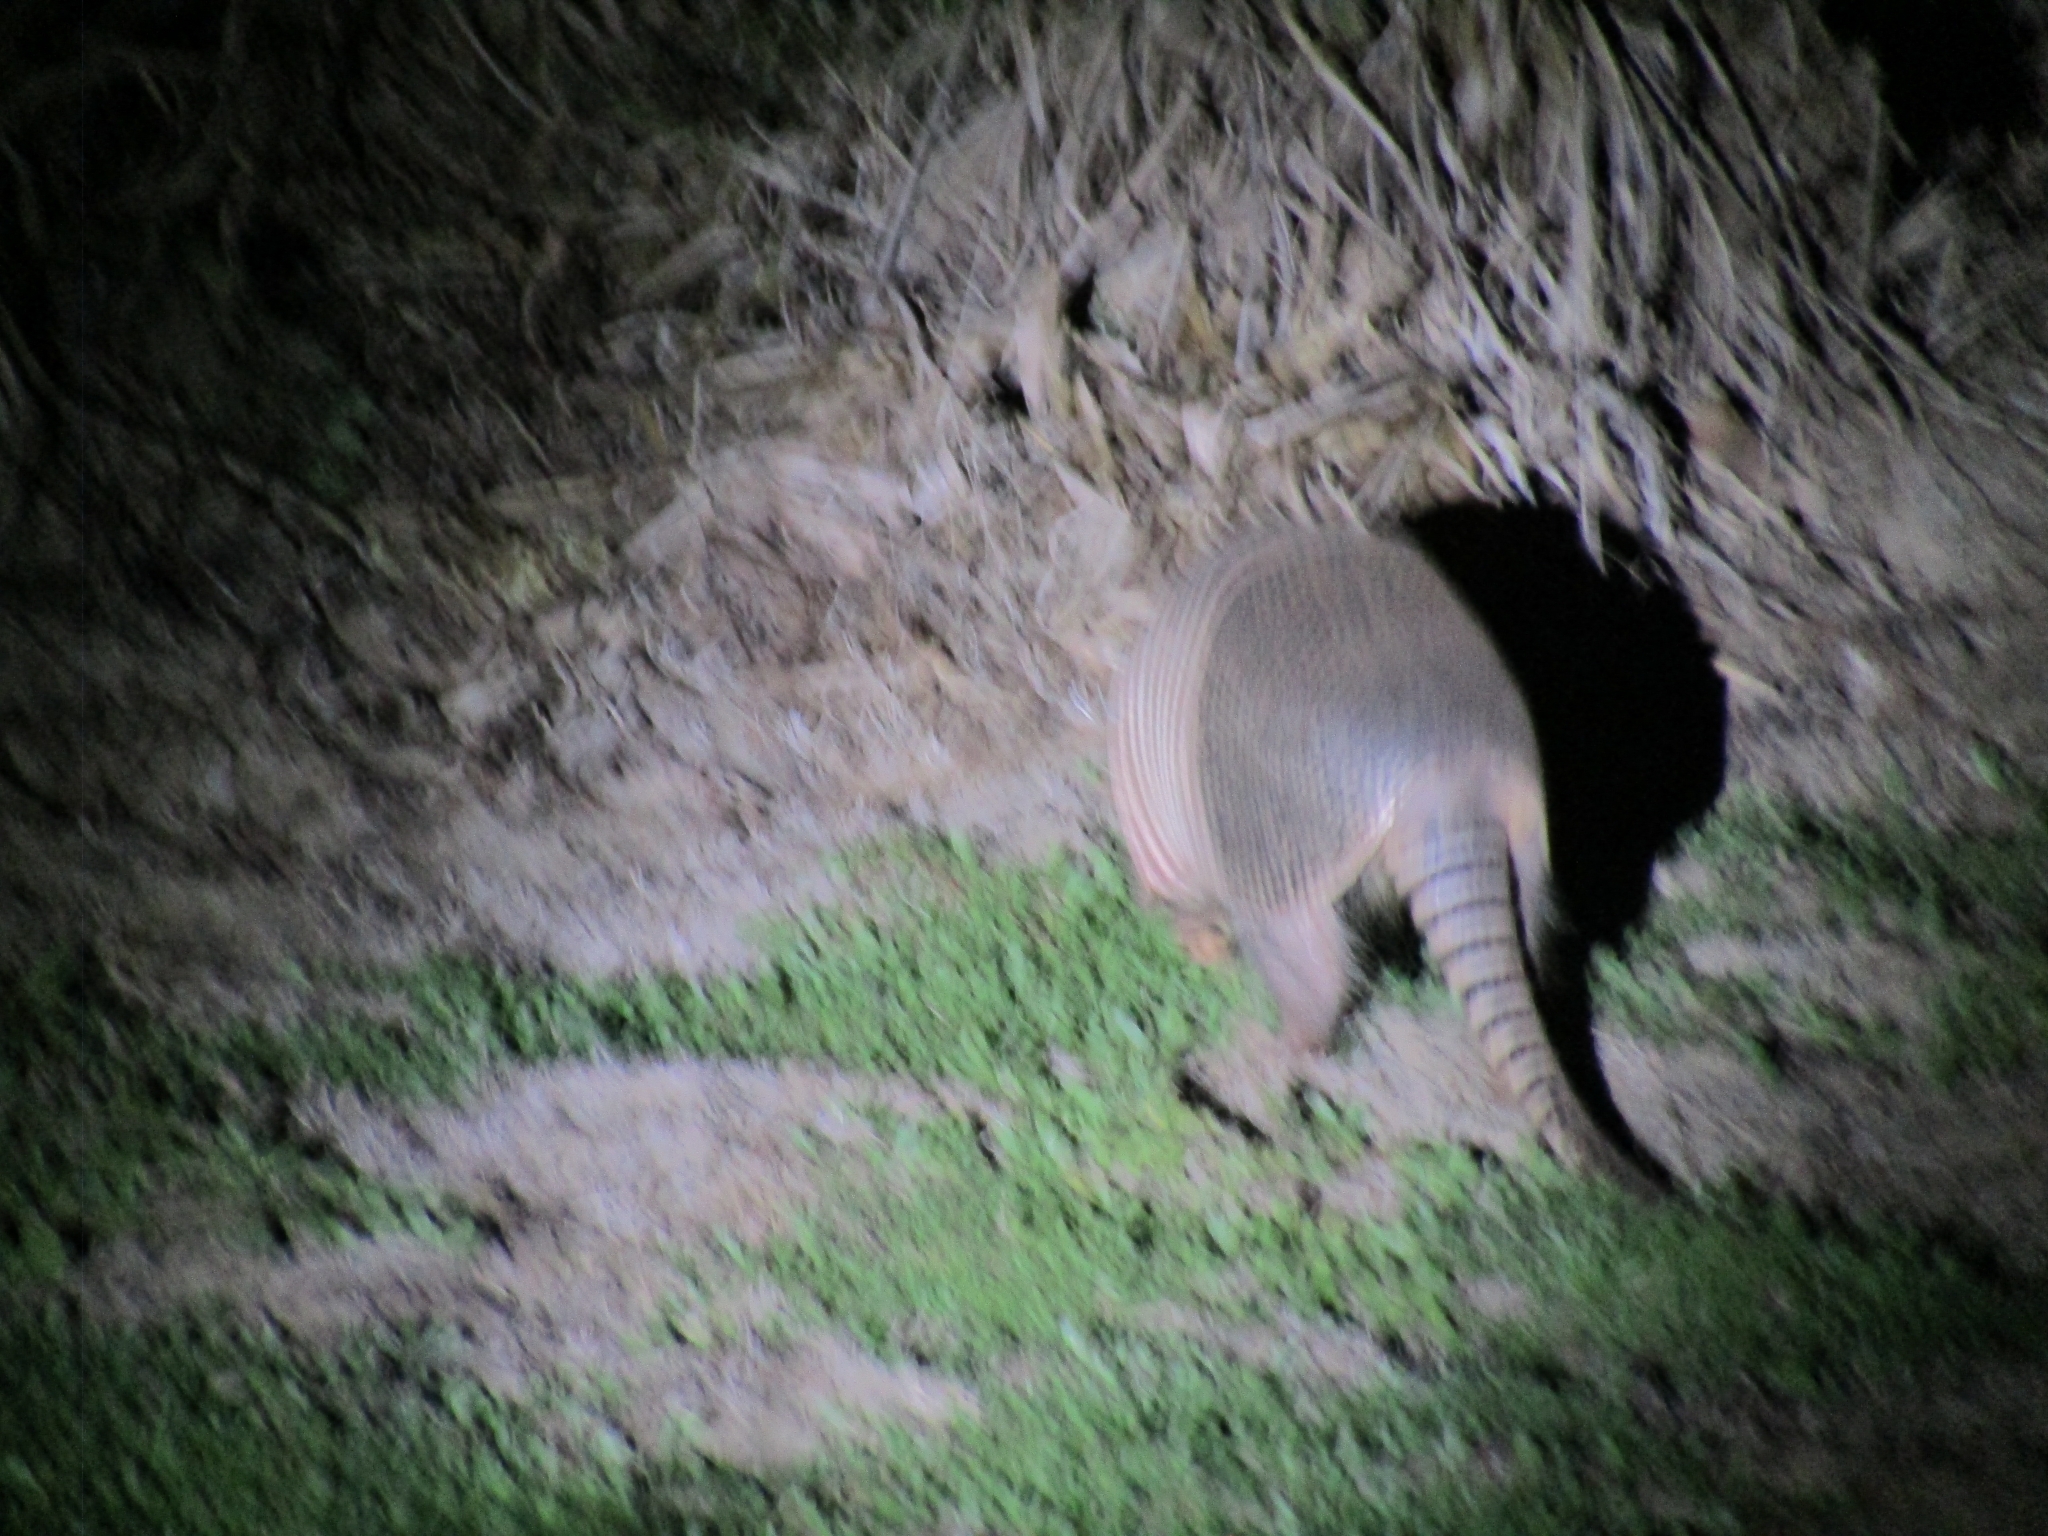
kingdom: Animalia
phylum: Chordata
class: Mammalia
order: Cingulata
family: Dasypodidae
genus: Dasypus
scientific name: Dasypus novemcinctus
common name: Nine-banded armadillo
